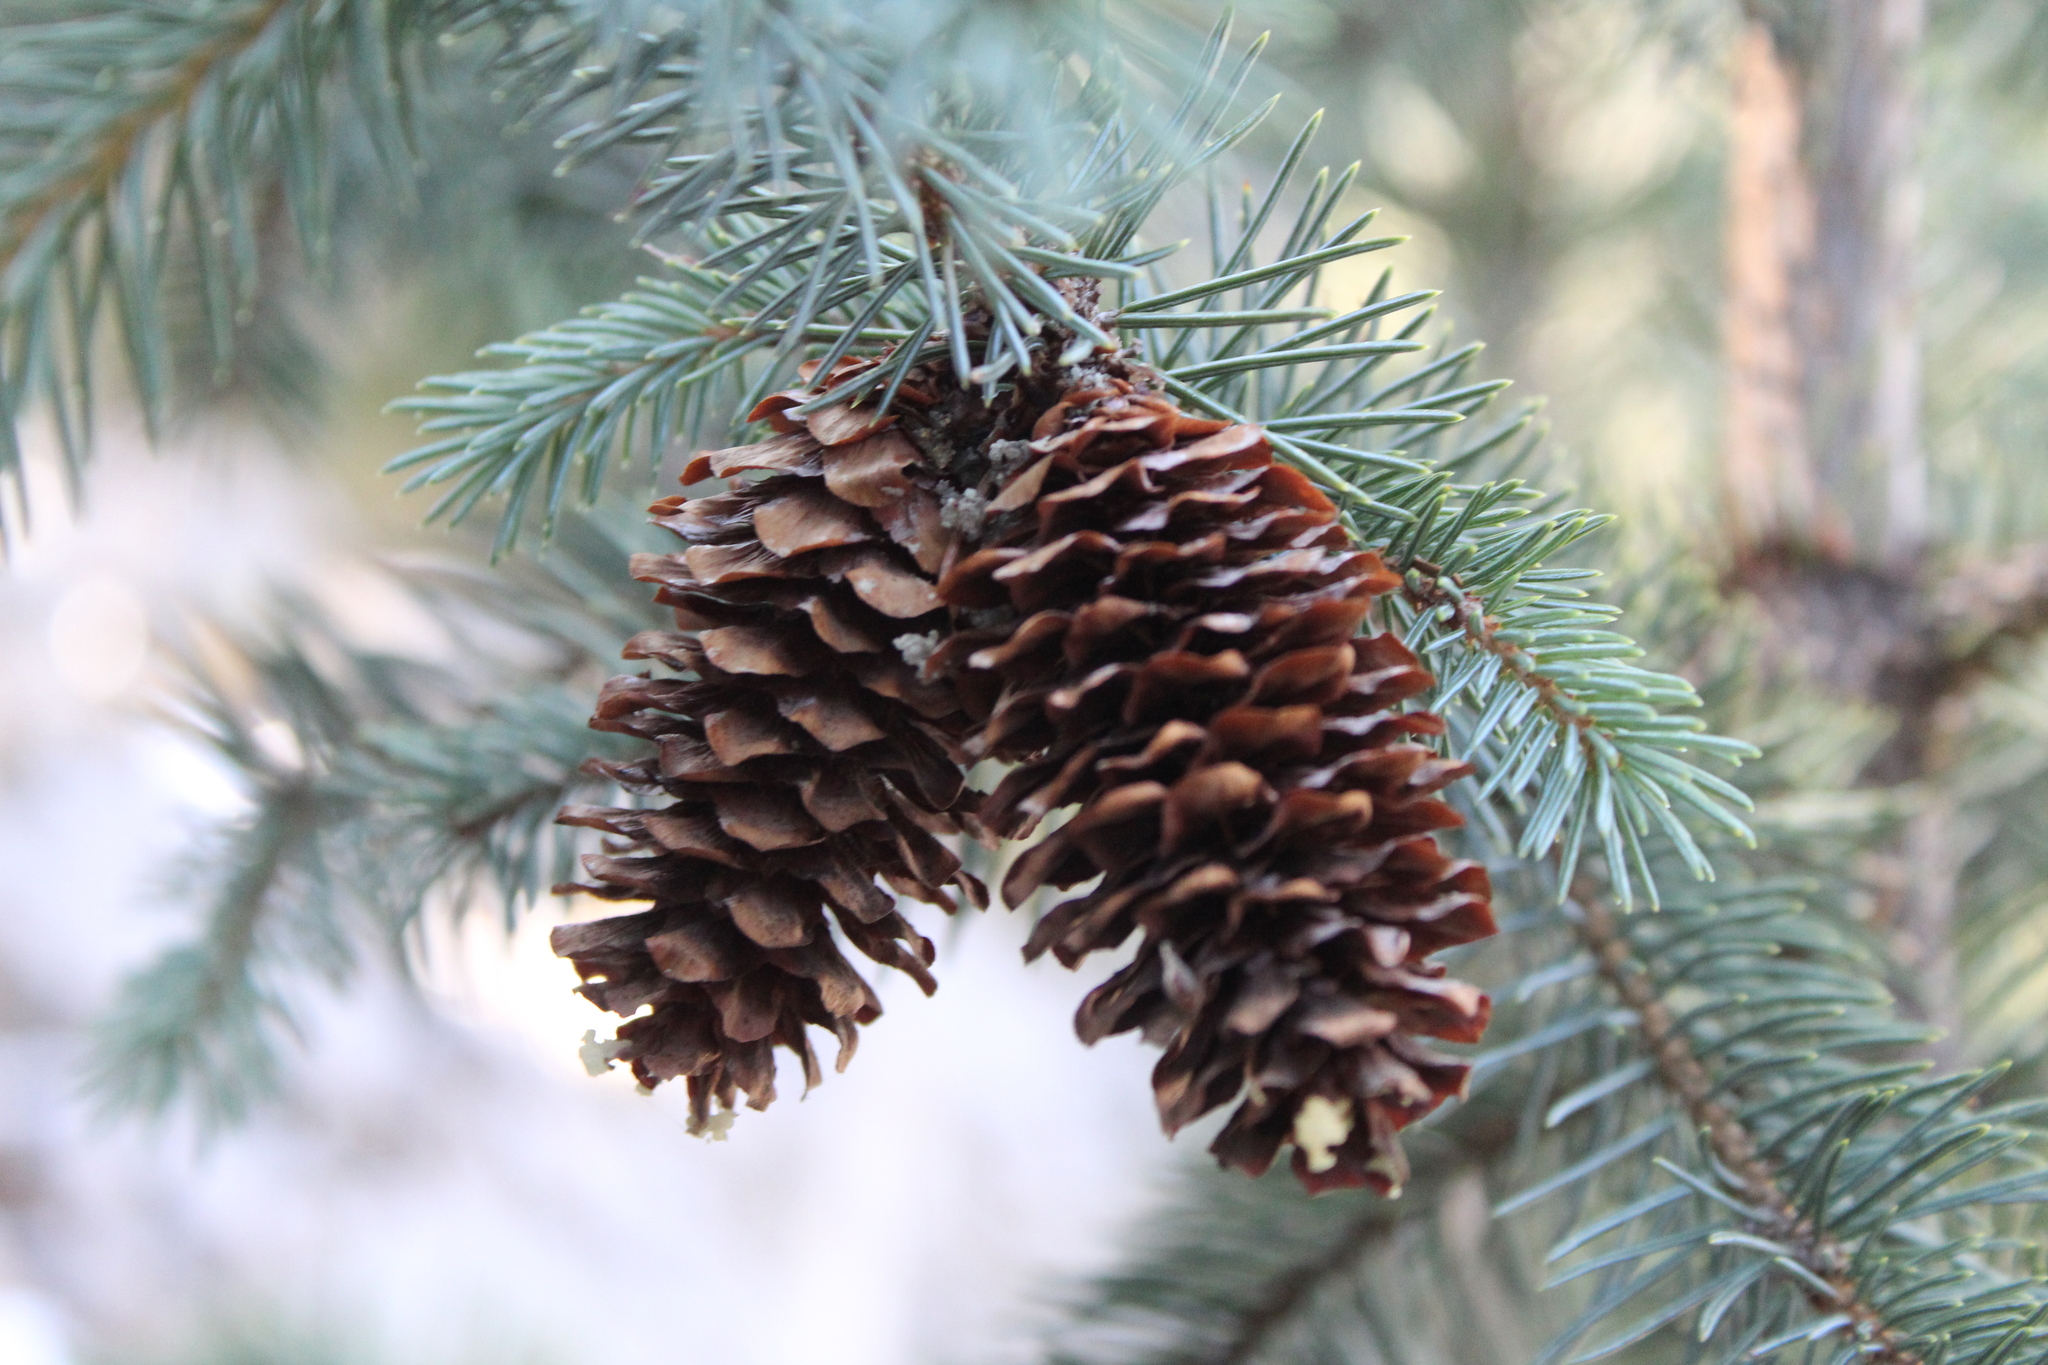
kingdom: Plantae
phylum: Tracheophyta
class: Pinopsida
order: Pinales
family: Pinaceae
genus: Picea
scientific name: Picea engelmannii
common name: Engelmann spruce
